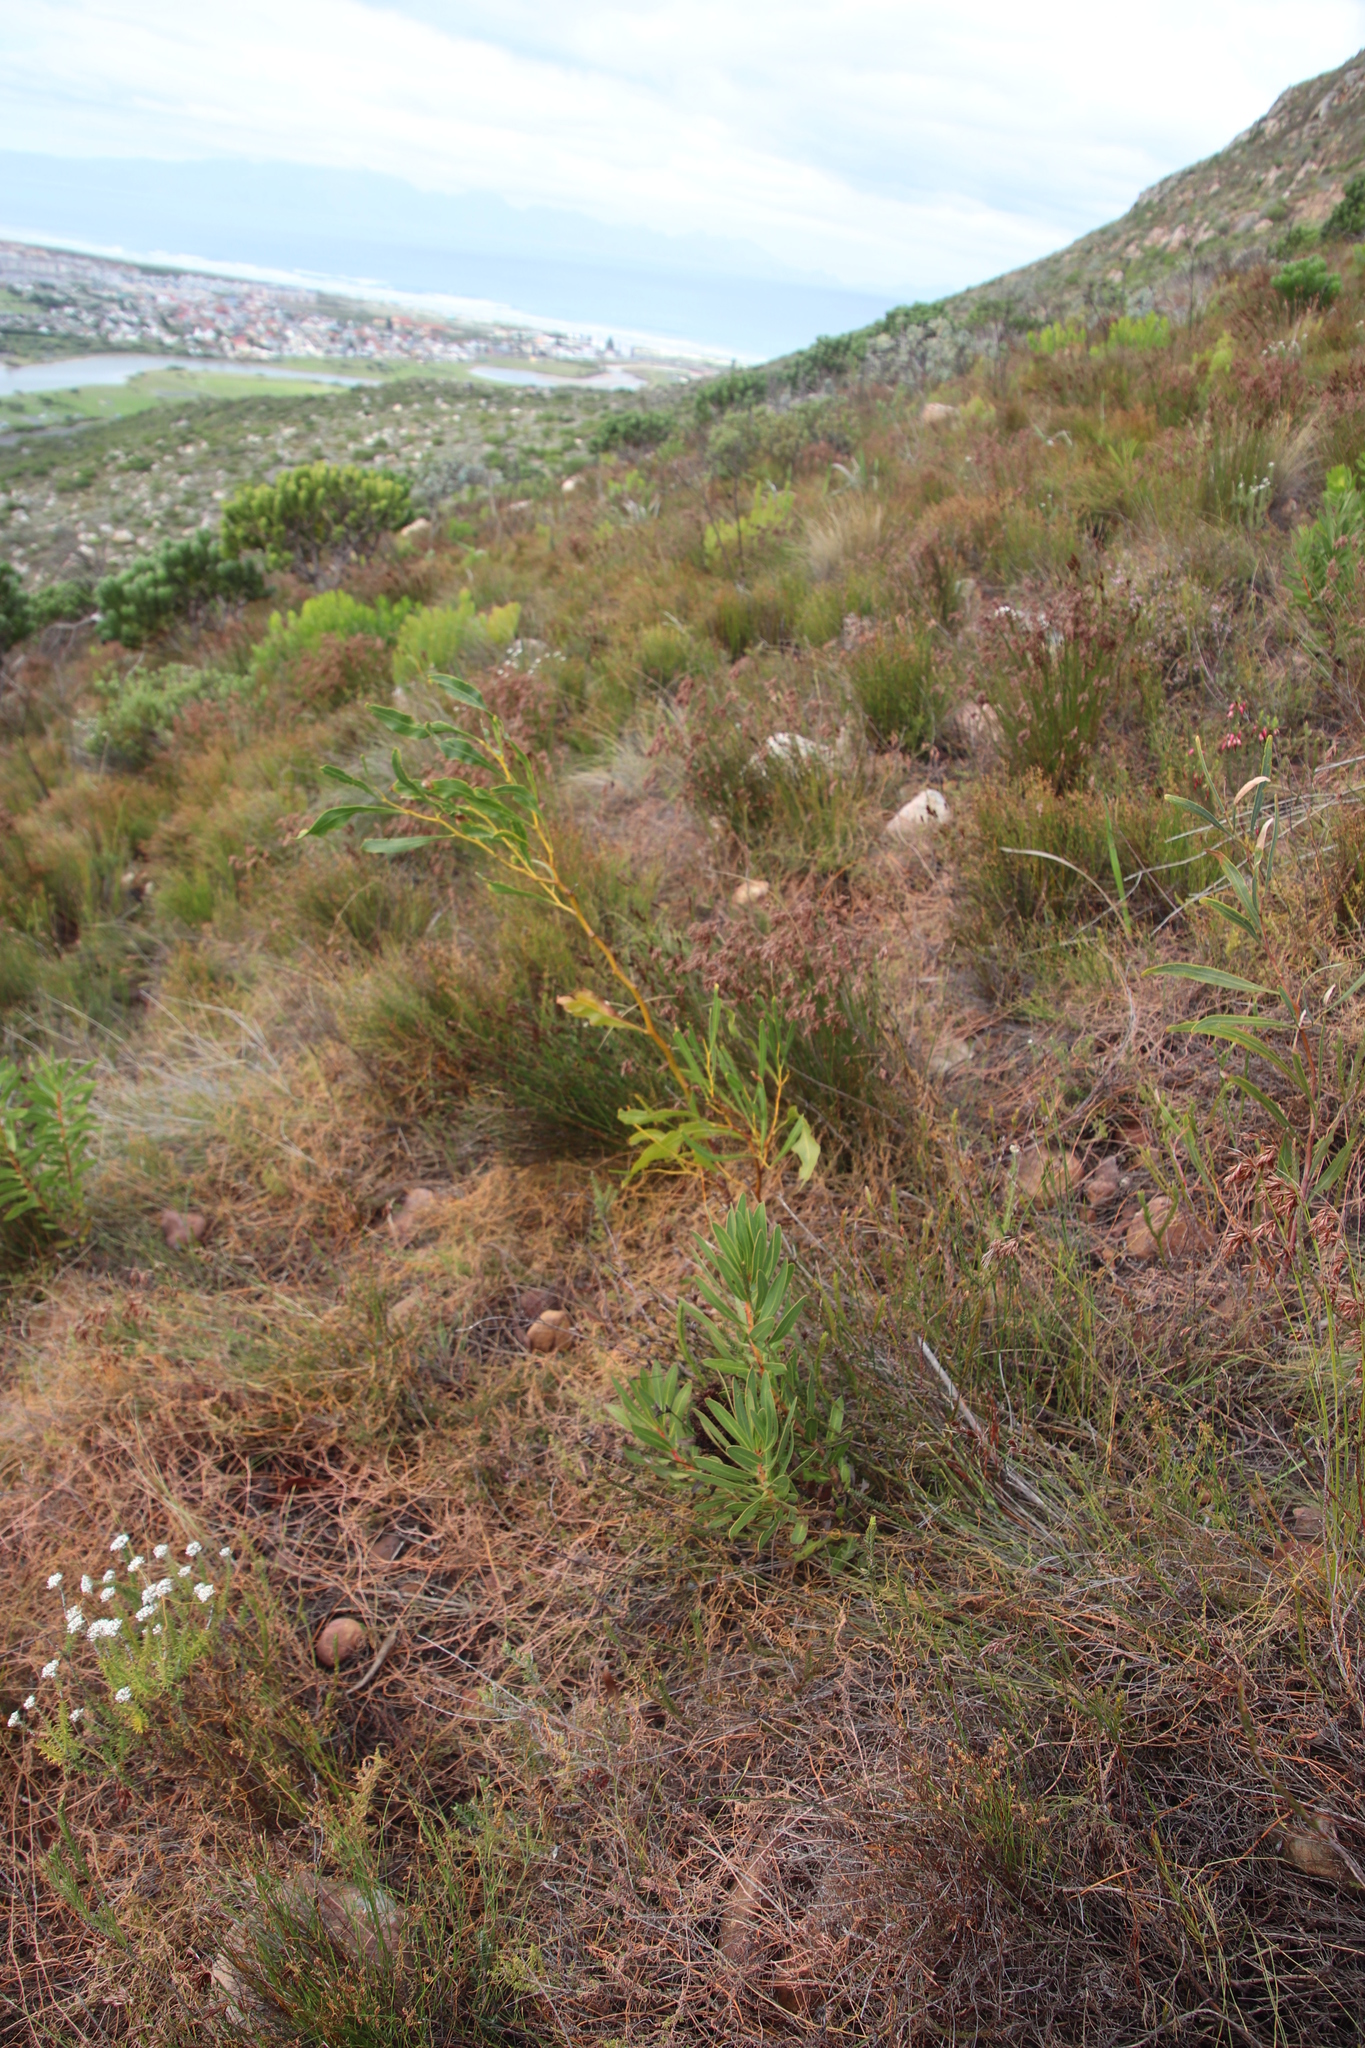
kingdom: Plantae
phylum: Tracheophyta
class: Magnoliopsida
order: Fabales
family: Fabaceae
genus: Acacia
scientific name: Acacia saligna
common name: Orange wattle
